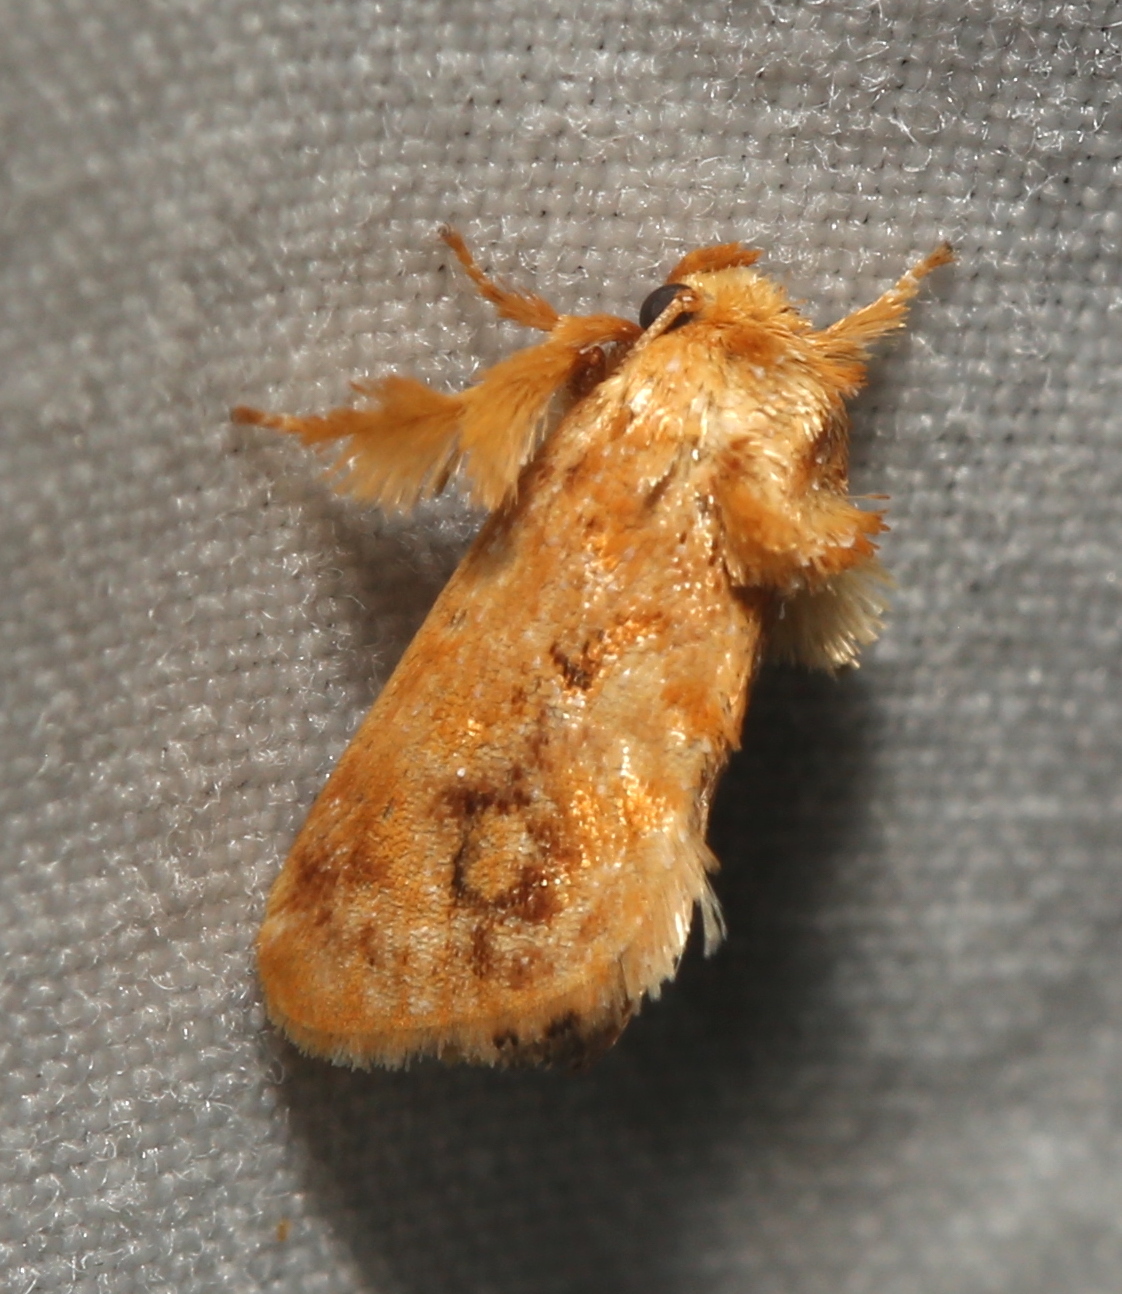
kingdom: Animalia
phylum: Arthropoda
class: Insecta
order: Lepidoptera
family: Limacodidae
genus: Isochaetes
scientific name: Isochaetes beutenmuelleri
